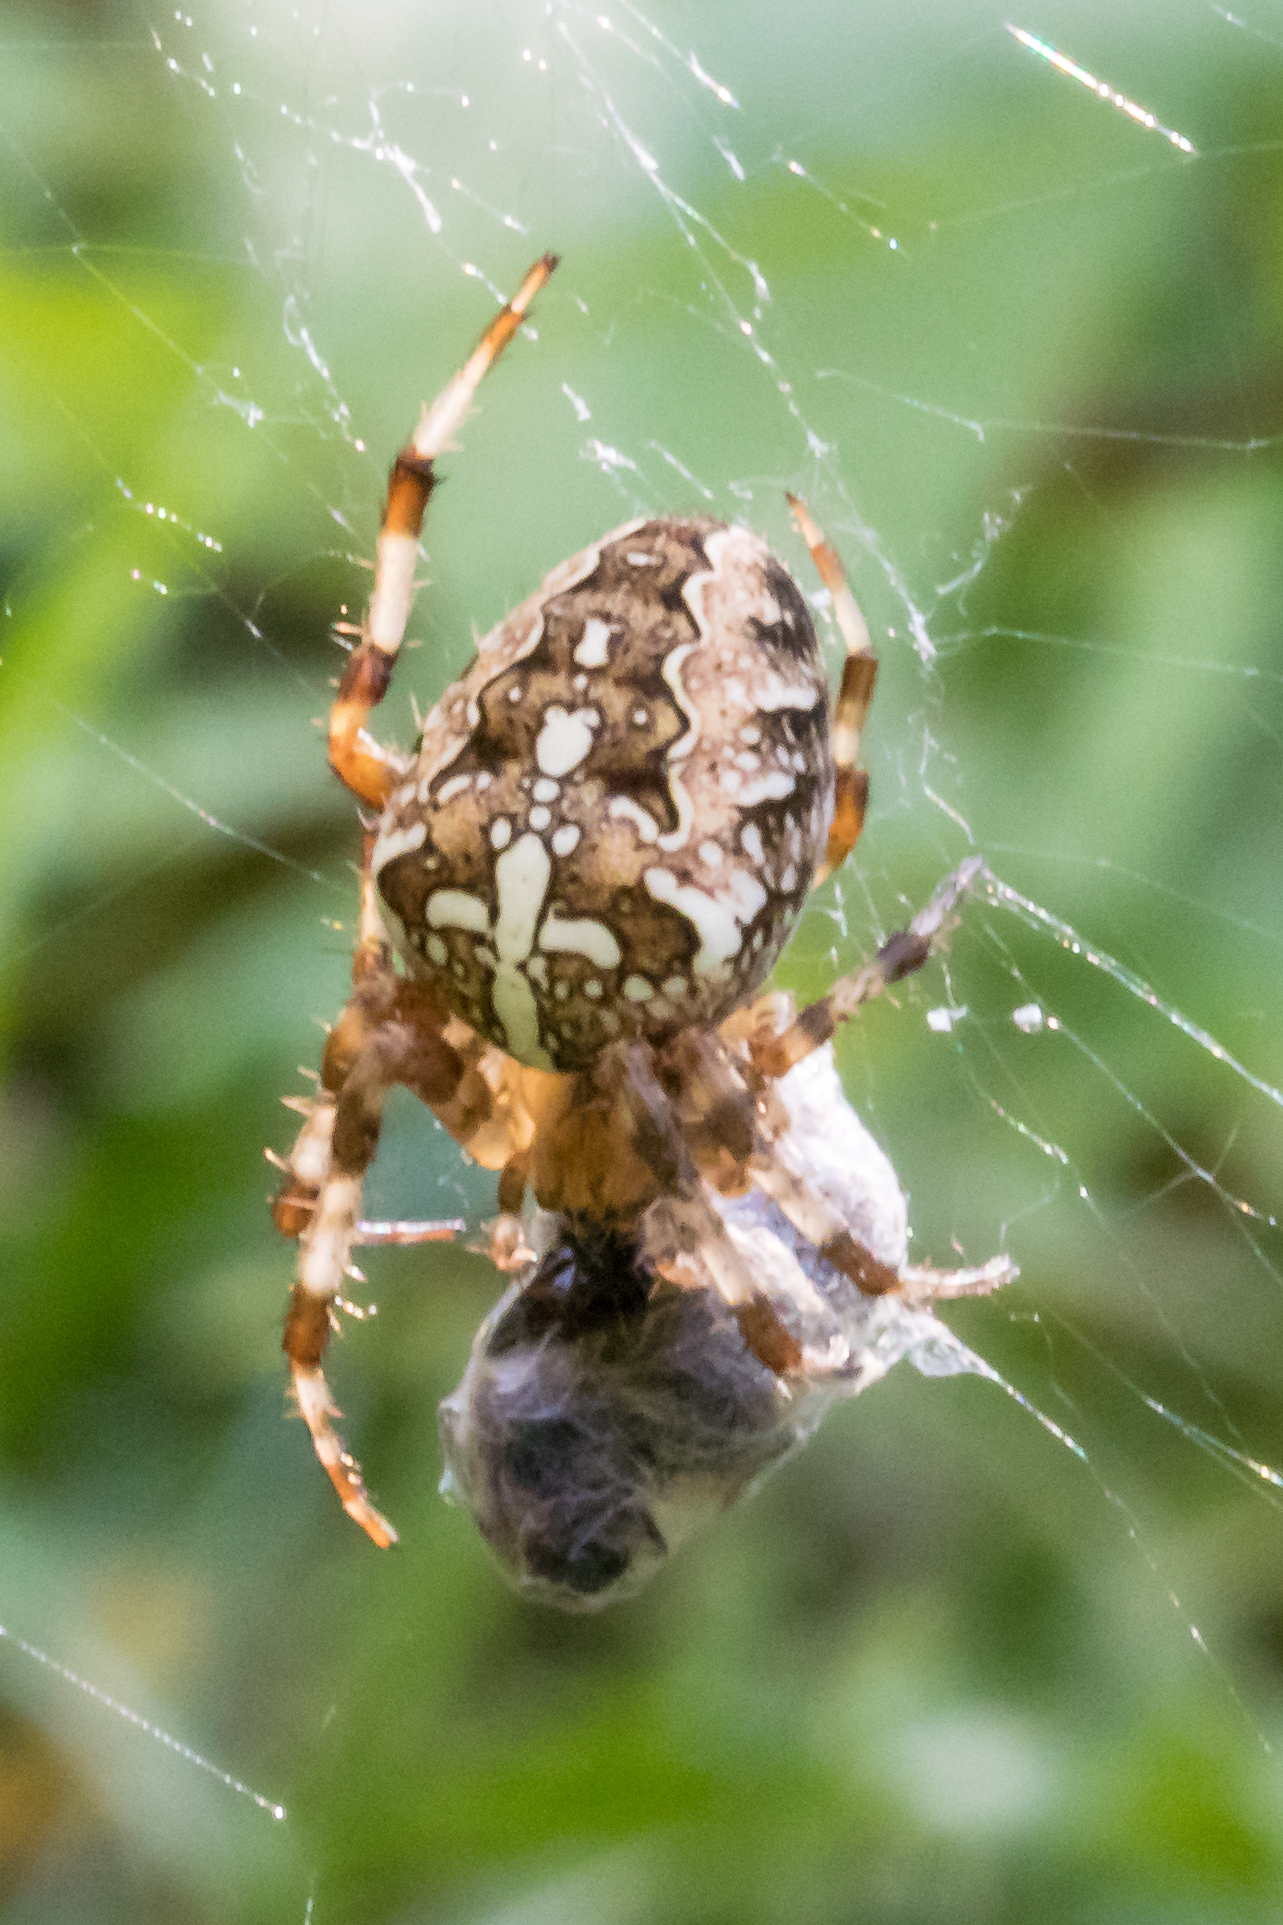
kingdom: Animalia
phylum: Arthropoda
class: Arachnida
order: Araneae
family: Araneidae
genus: Araneus
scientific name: Araneus diadematus
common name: Cross orbweaver
